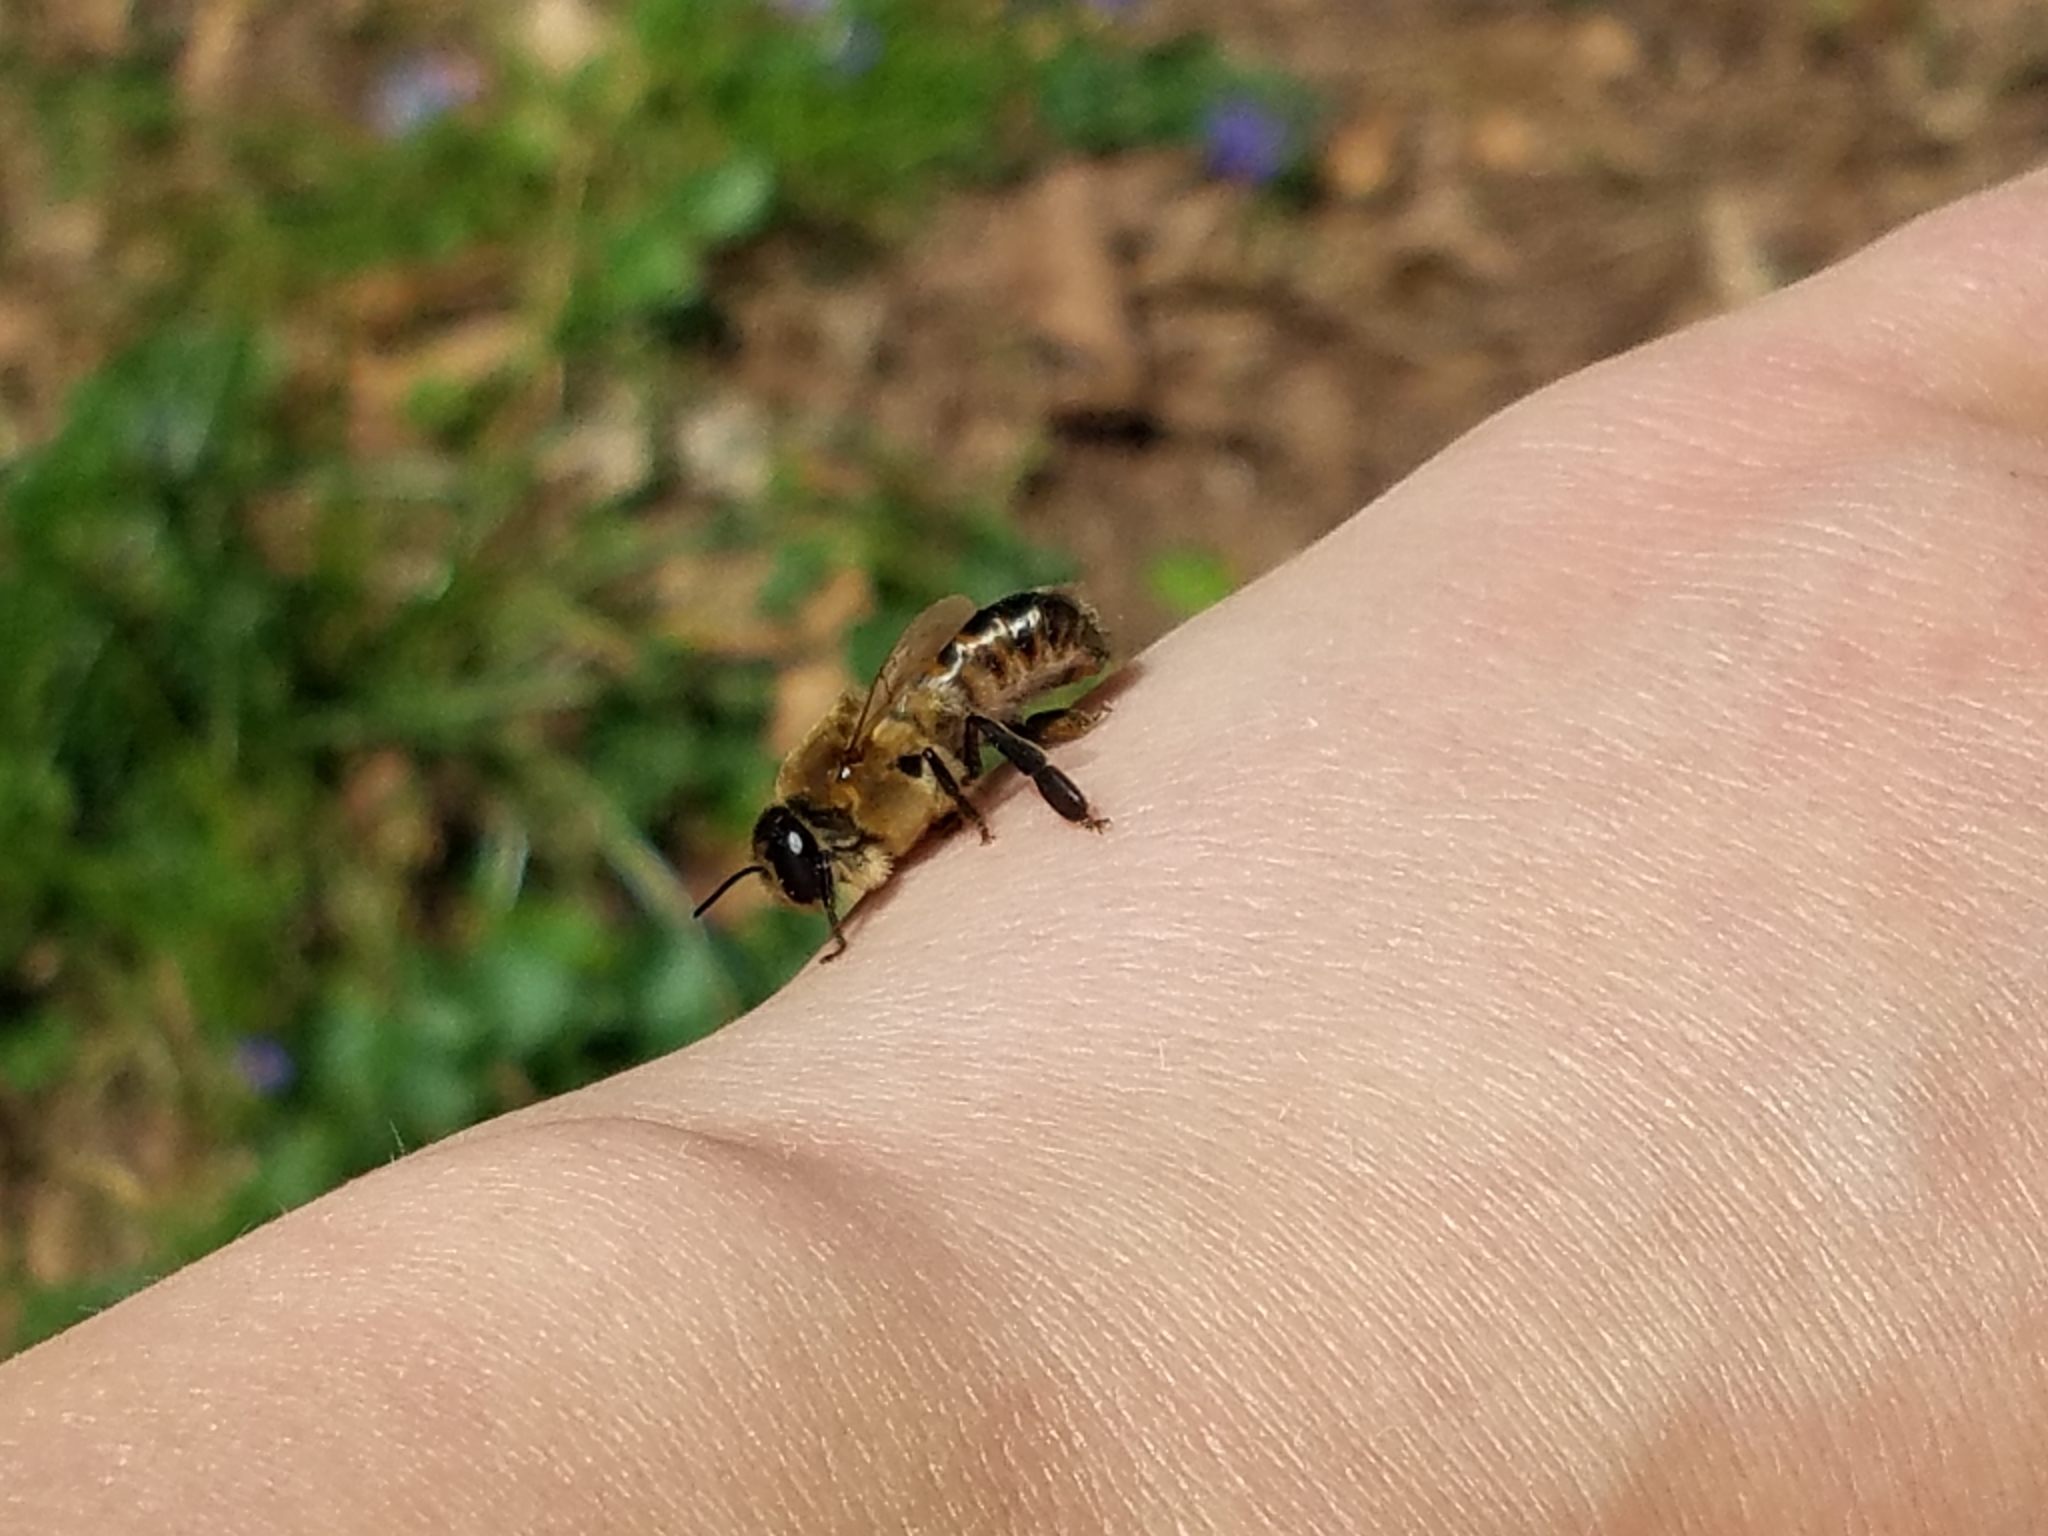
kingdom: Animalia
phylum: Arthropoda
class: Insecta
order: Hymenoptera
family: Apidae
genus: Apis
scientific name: Apis mellifera
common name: Honey bee
